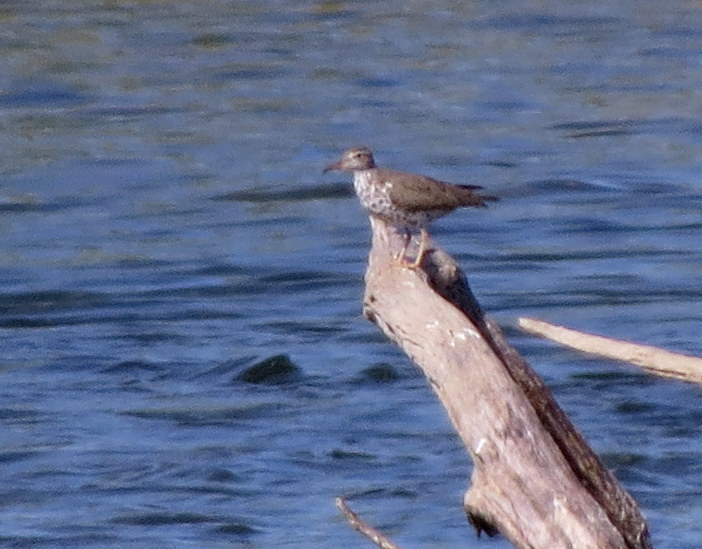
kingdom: Animalia
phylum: Chordata
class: Aves
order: Charadriiformes
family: Scolopacidae
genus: Actitis
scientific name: Actitis macularius
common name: Spotted sandpiper
